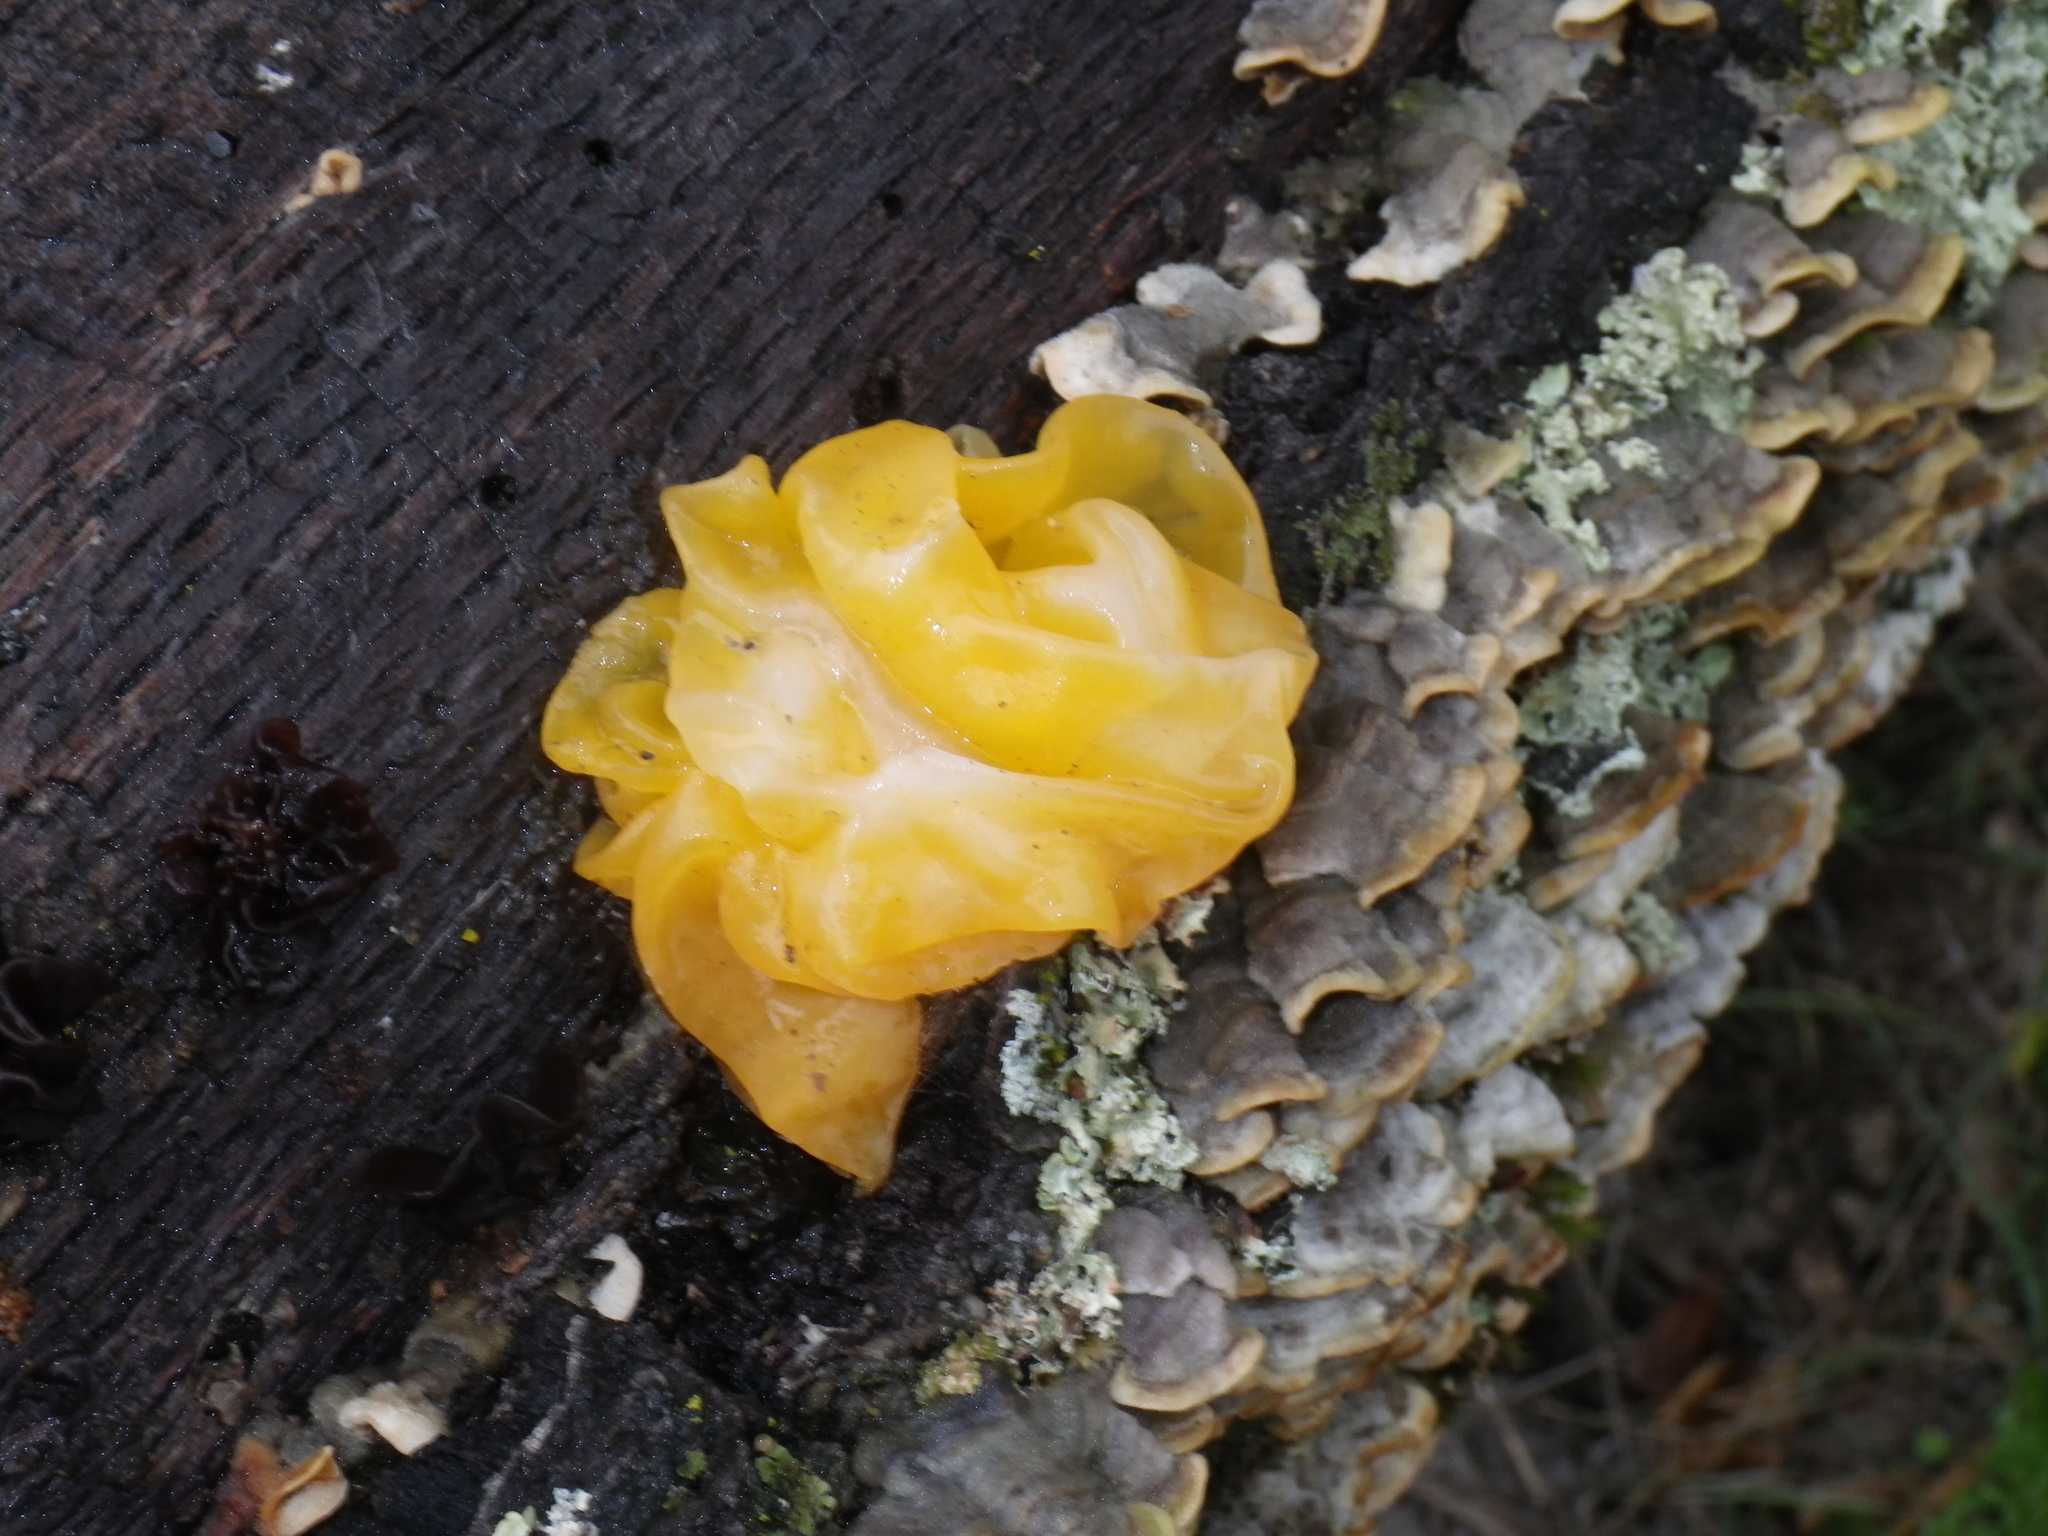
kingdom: Fungi
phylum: Basidiomycota
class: Tremellomycetes
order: Tremellales
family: Naemateliaceae
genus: Naematelia
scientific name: Naematelia aurantia
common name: Golden ear
